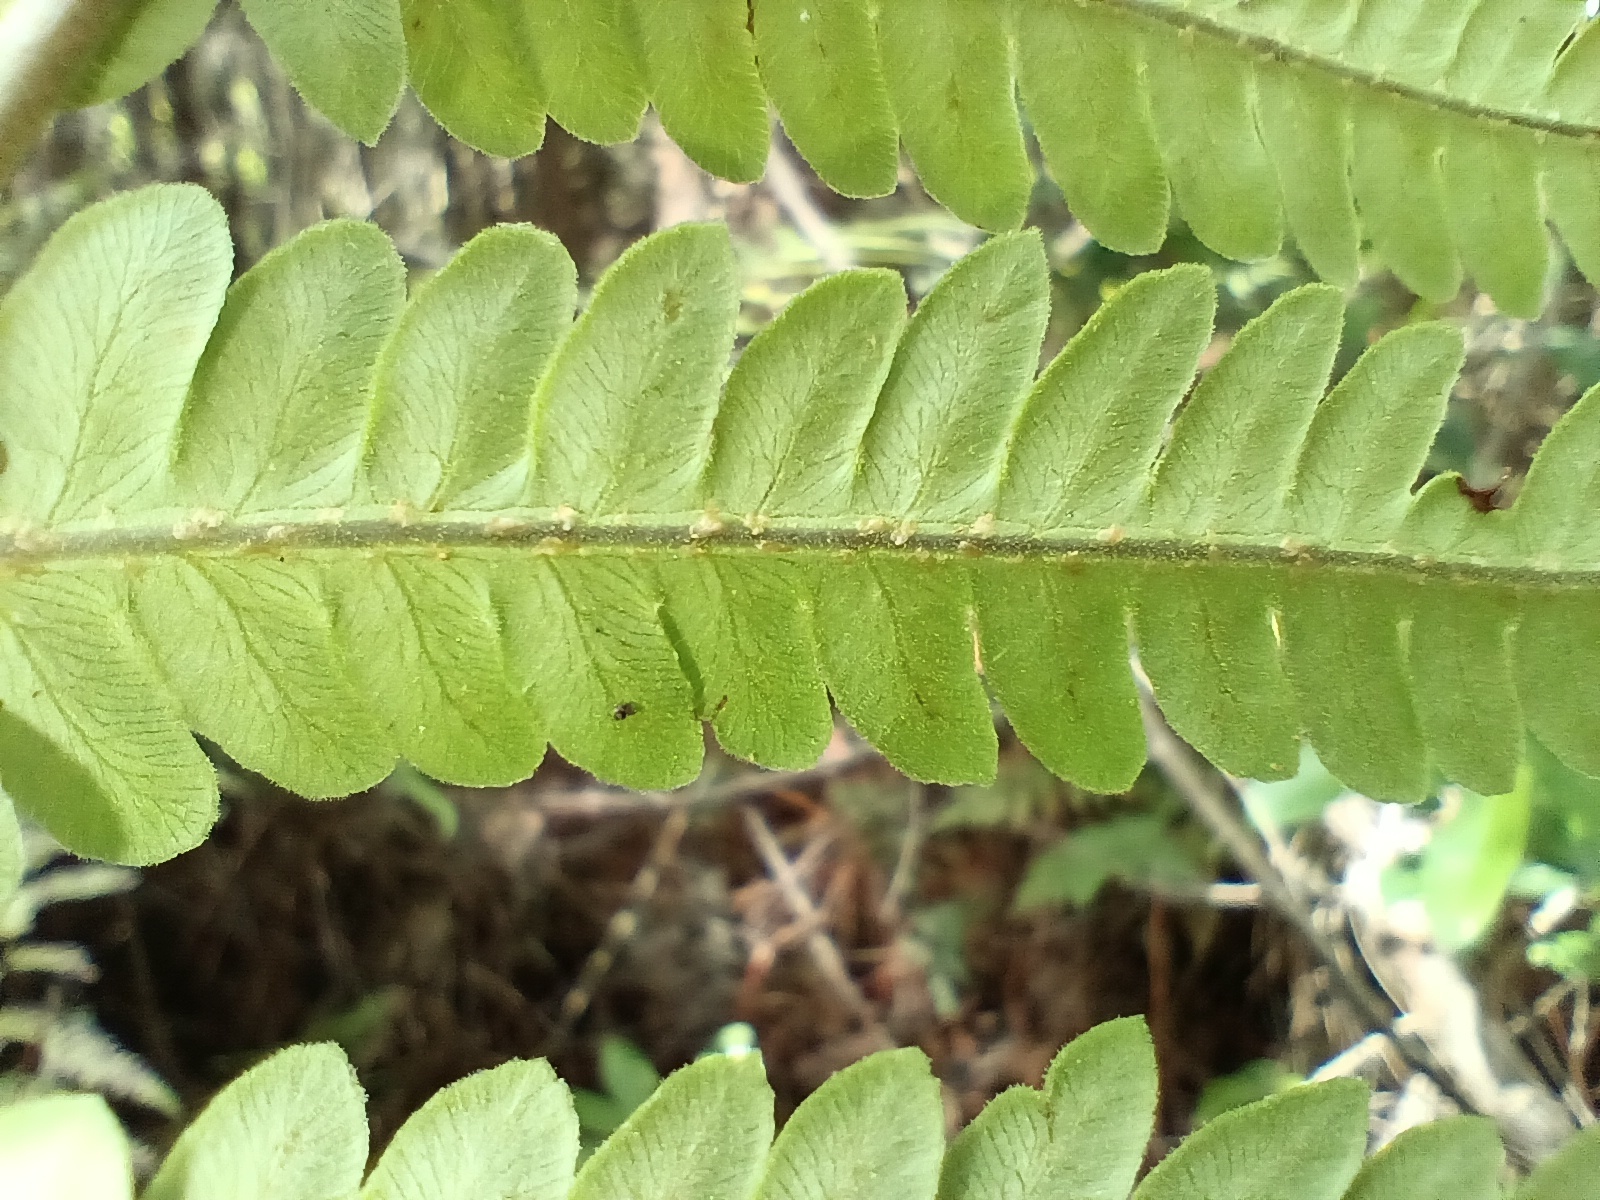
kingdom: Plantae
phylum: Tracheophyta
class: Polypodiopsida
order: Polypodiales
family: Blechnaceae
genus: Anchistea
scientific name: Anchistea virginica
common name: Virginia chain fern
